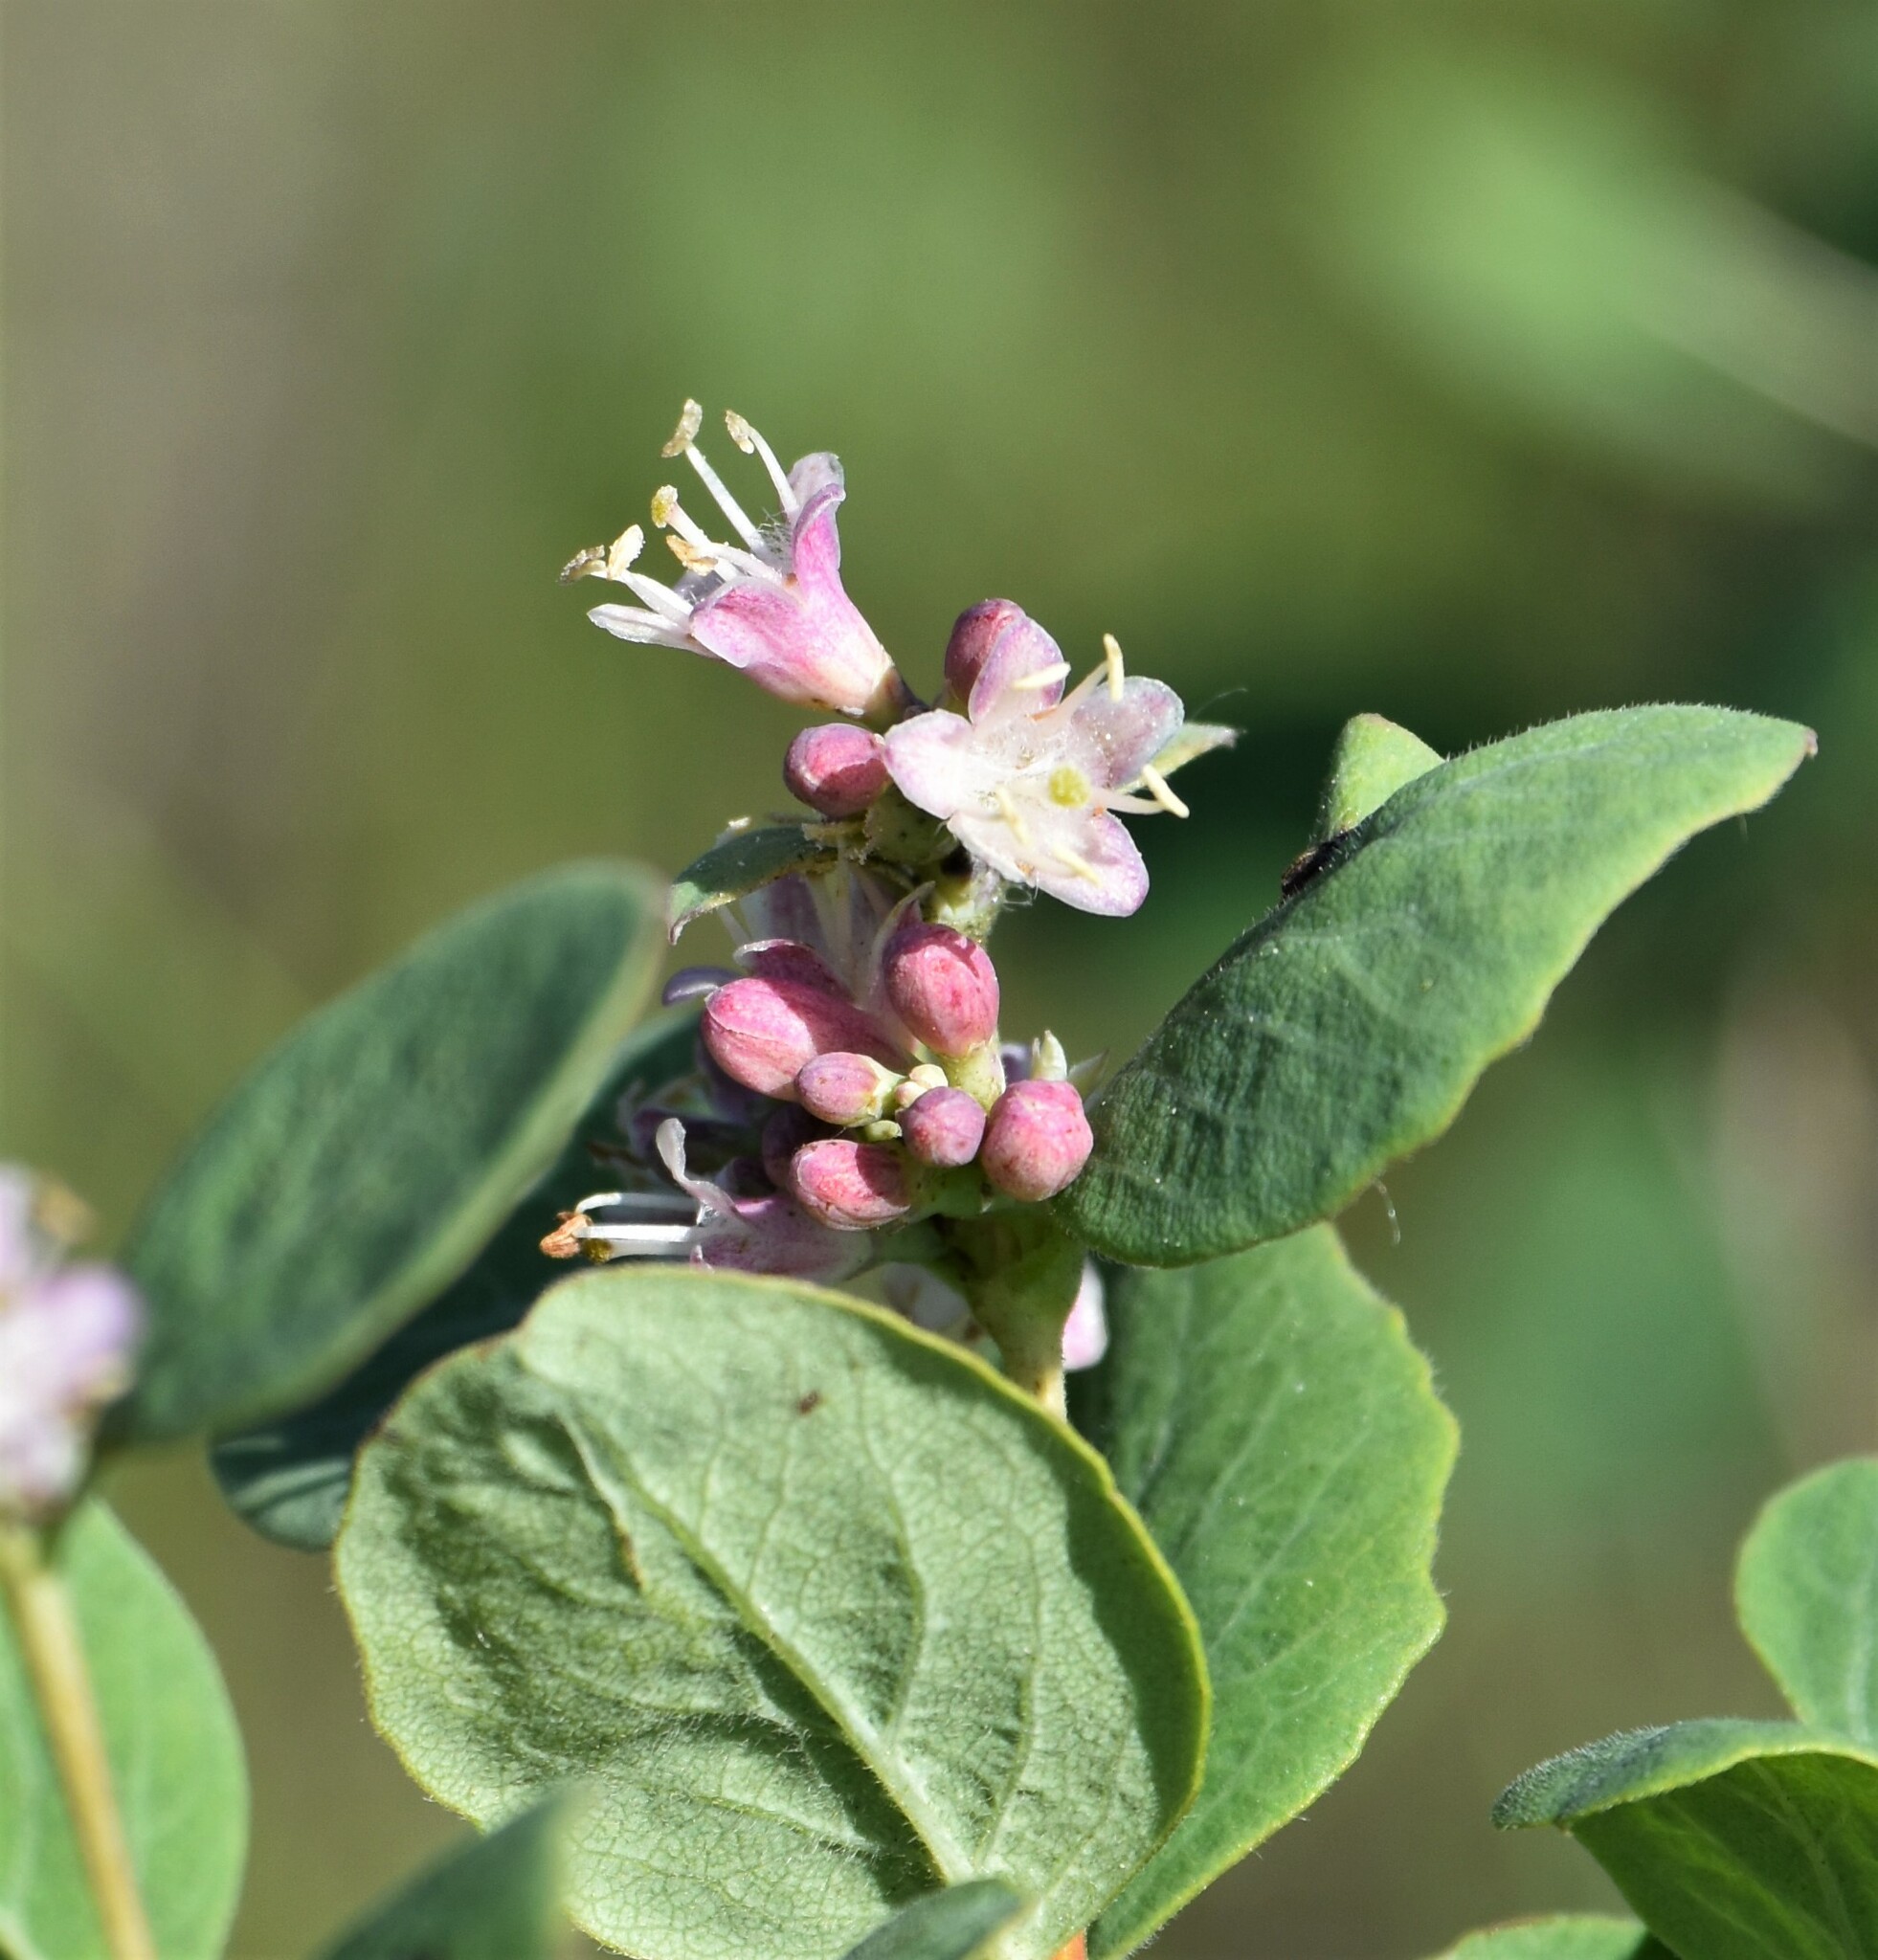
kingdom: Plantae
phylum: Tracheophyta
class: Magnoliopsida
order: Dipsacales
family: Caprifoliaceae
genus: Symphoricarpos
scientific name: Symphoricarpos occidentalis
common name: Wolfberry
